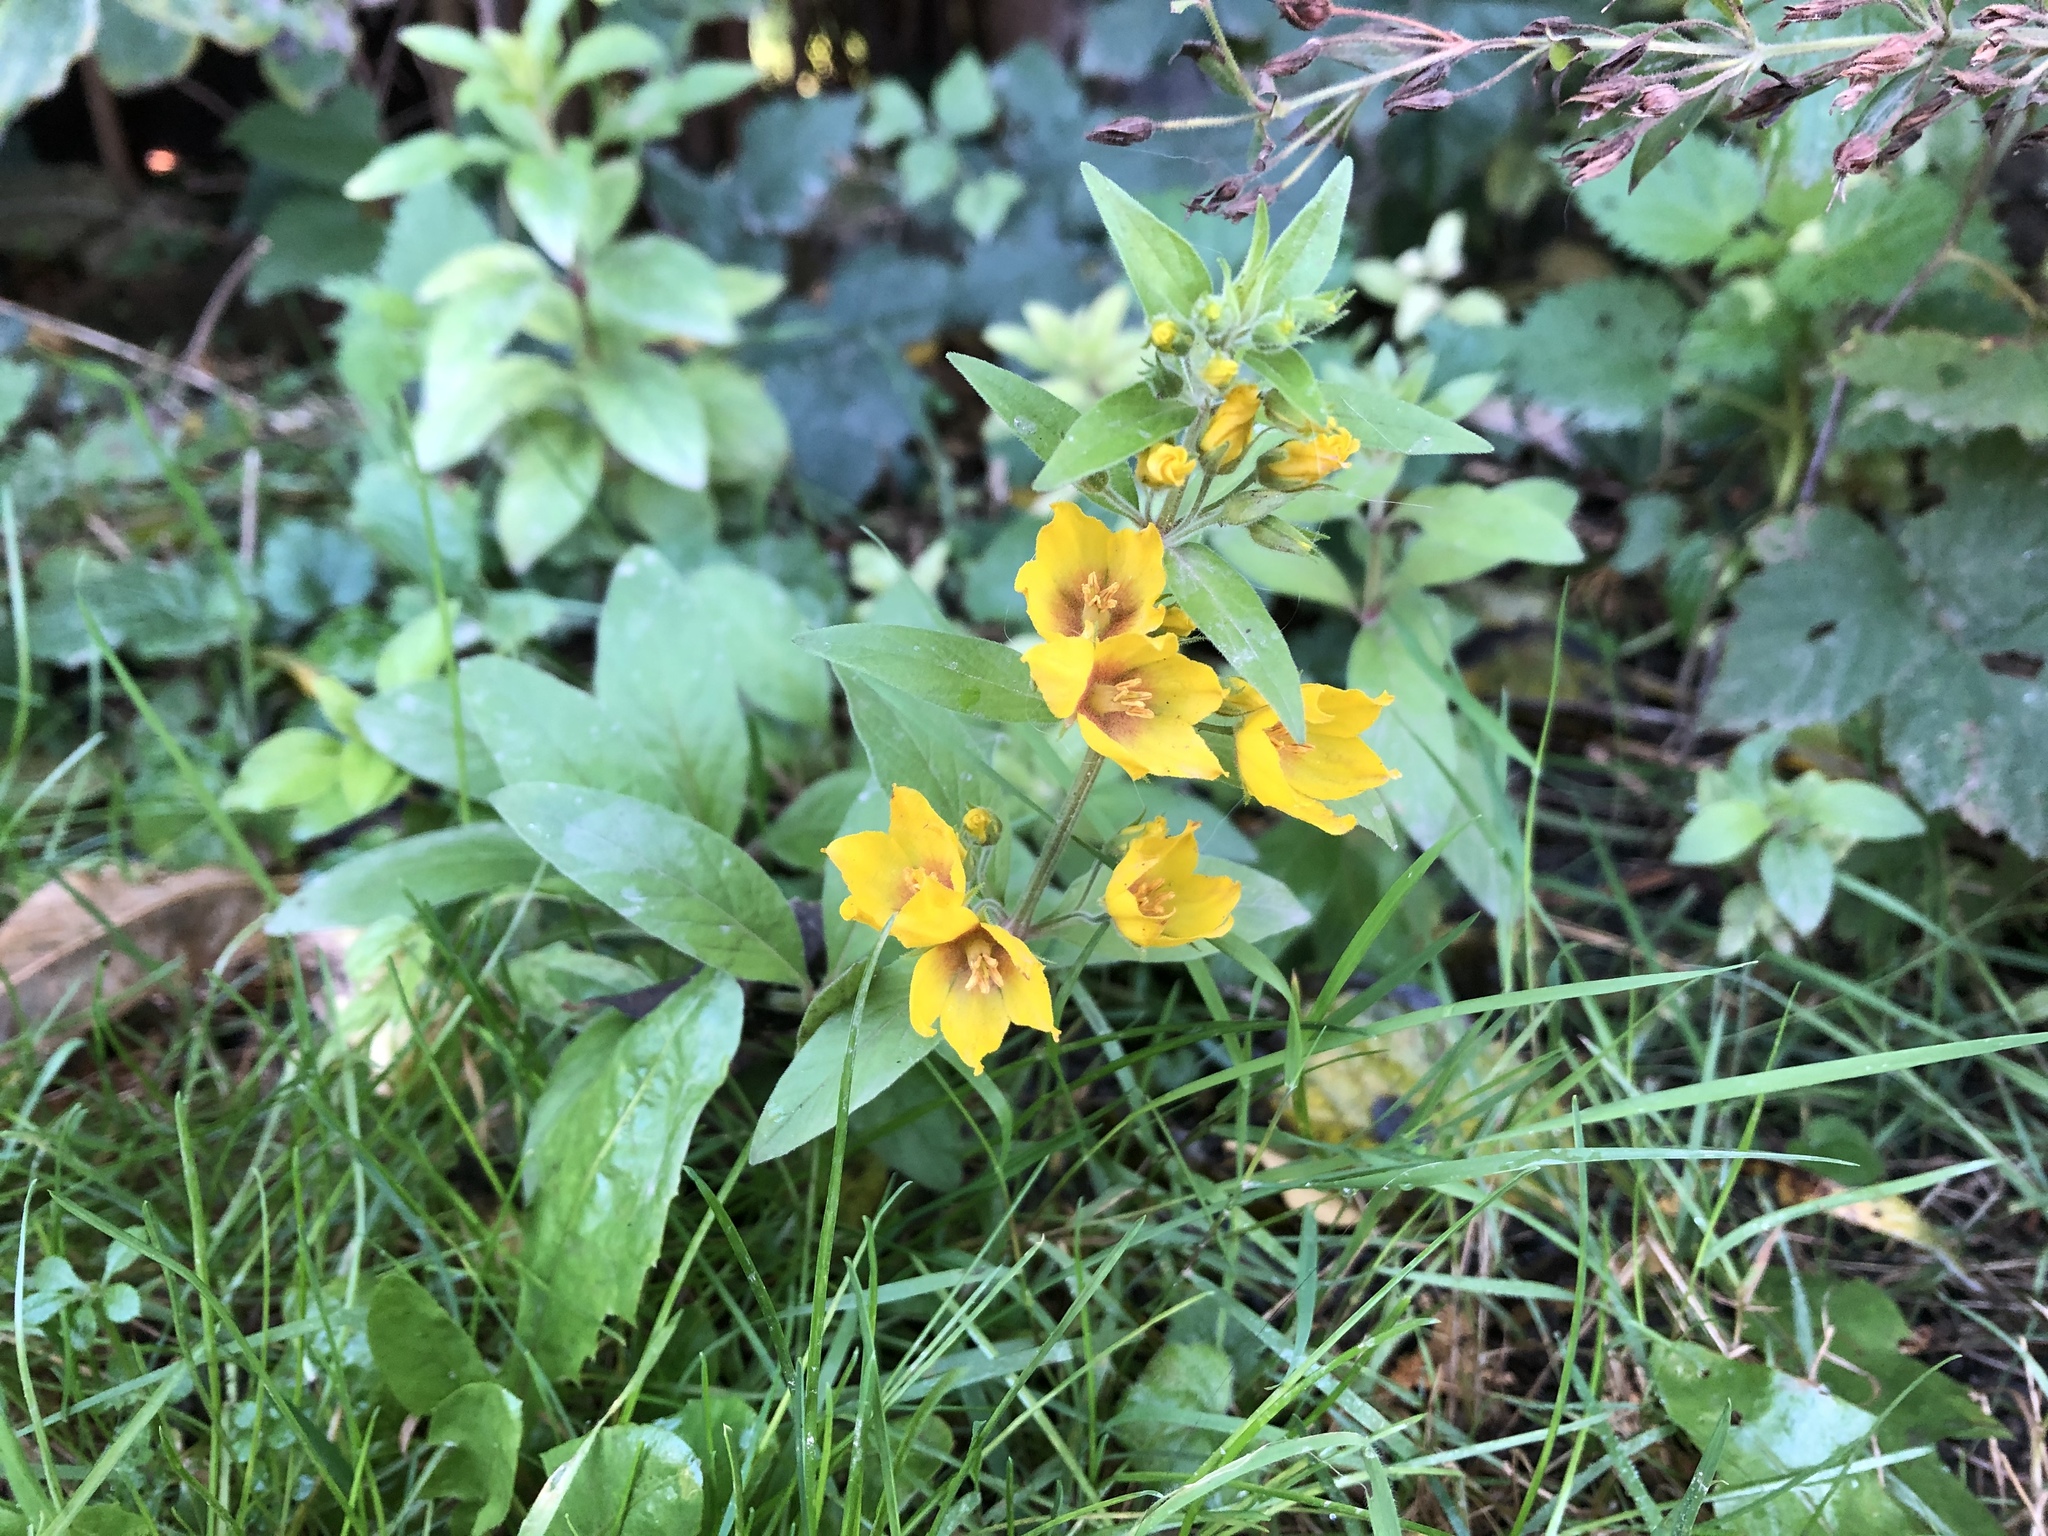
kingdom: Plantae
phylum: Tracheophyta
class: Magnoliopsida
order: Ericales
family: Primulaceae
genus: Lysimachia
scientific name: Lysimachia punctata
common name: Dotted loosestrife
